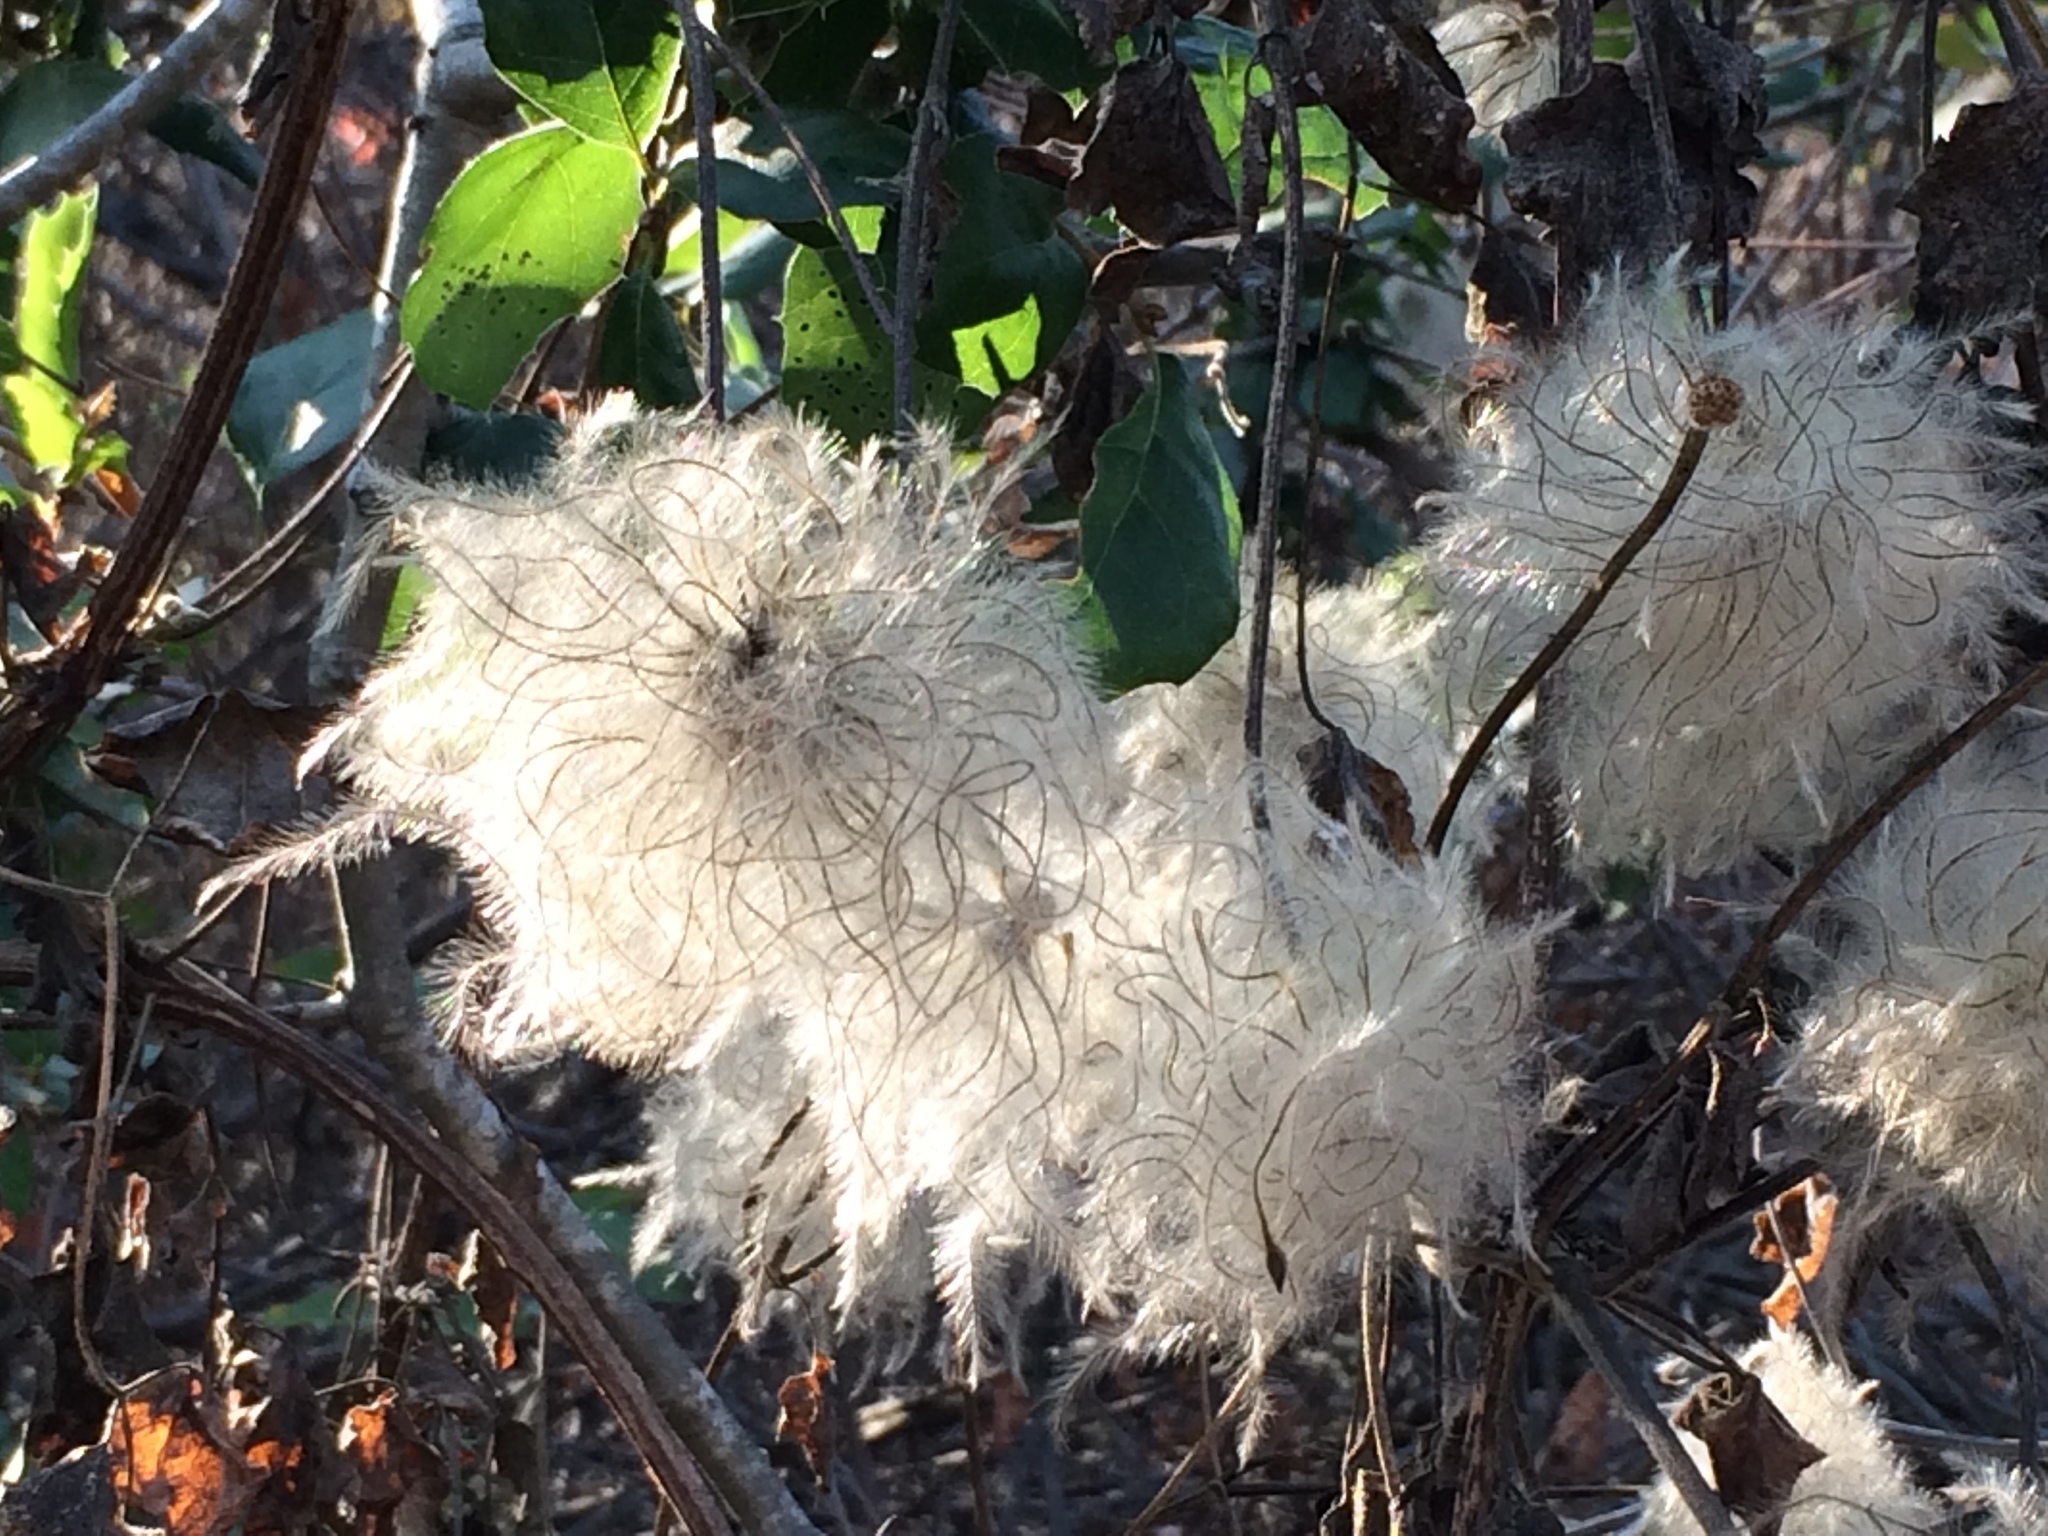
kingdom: Plantae
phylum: Tracheophyta
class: Magnoliopsida
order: Ranunculales
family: Ranunculaceae
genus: Clematis
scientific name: Clematis lasiantha
